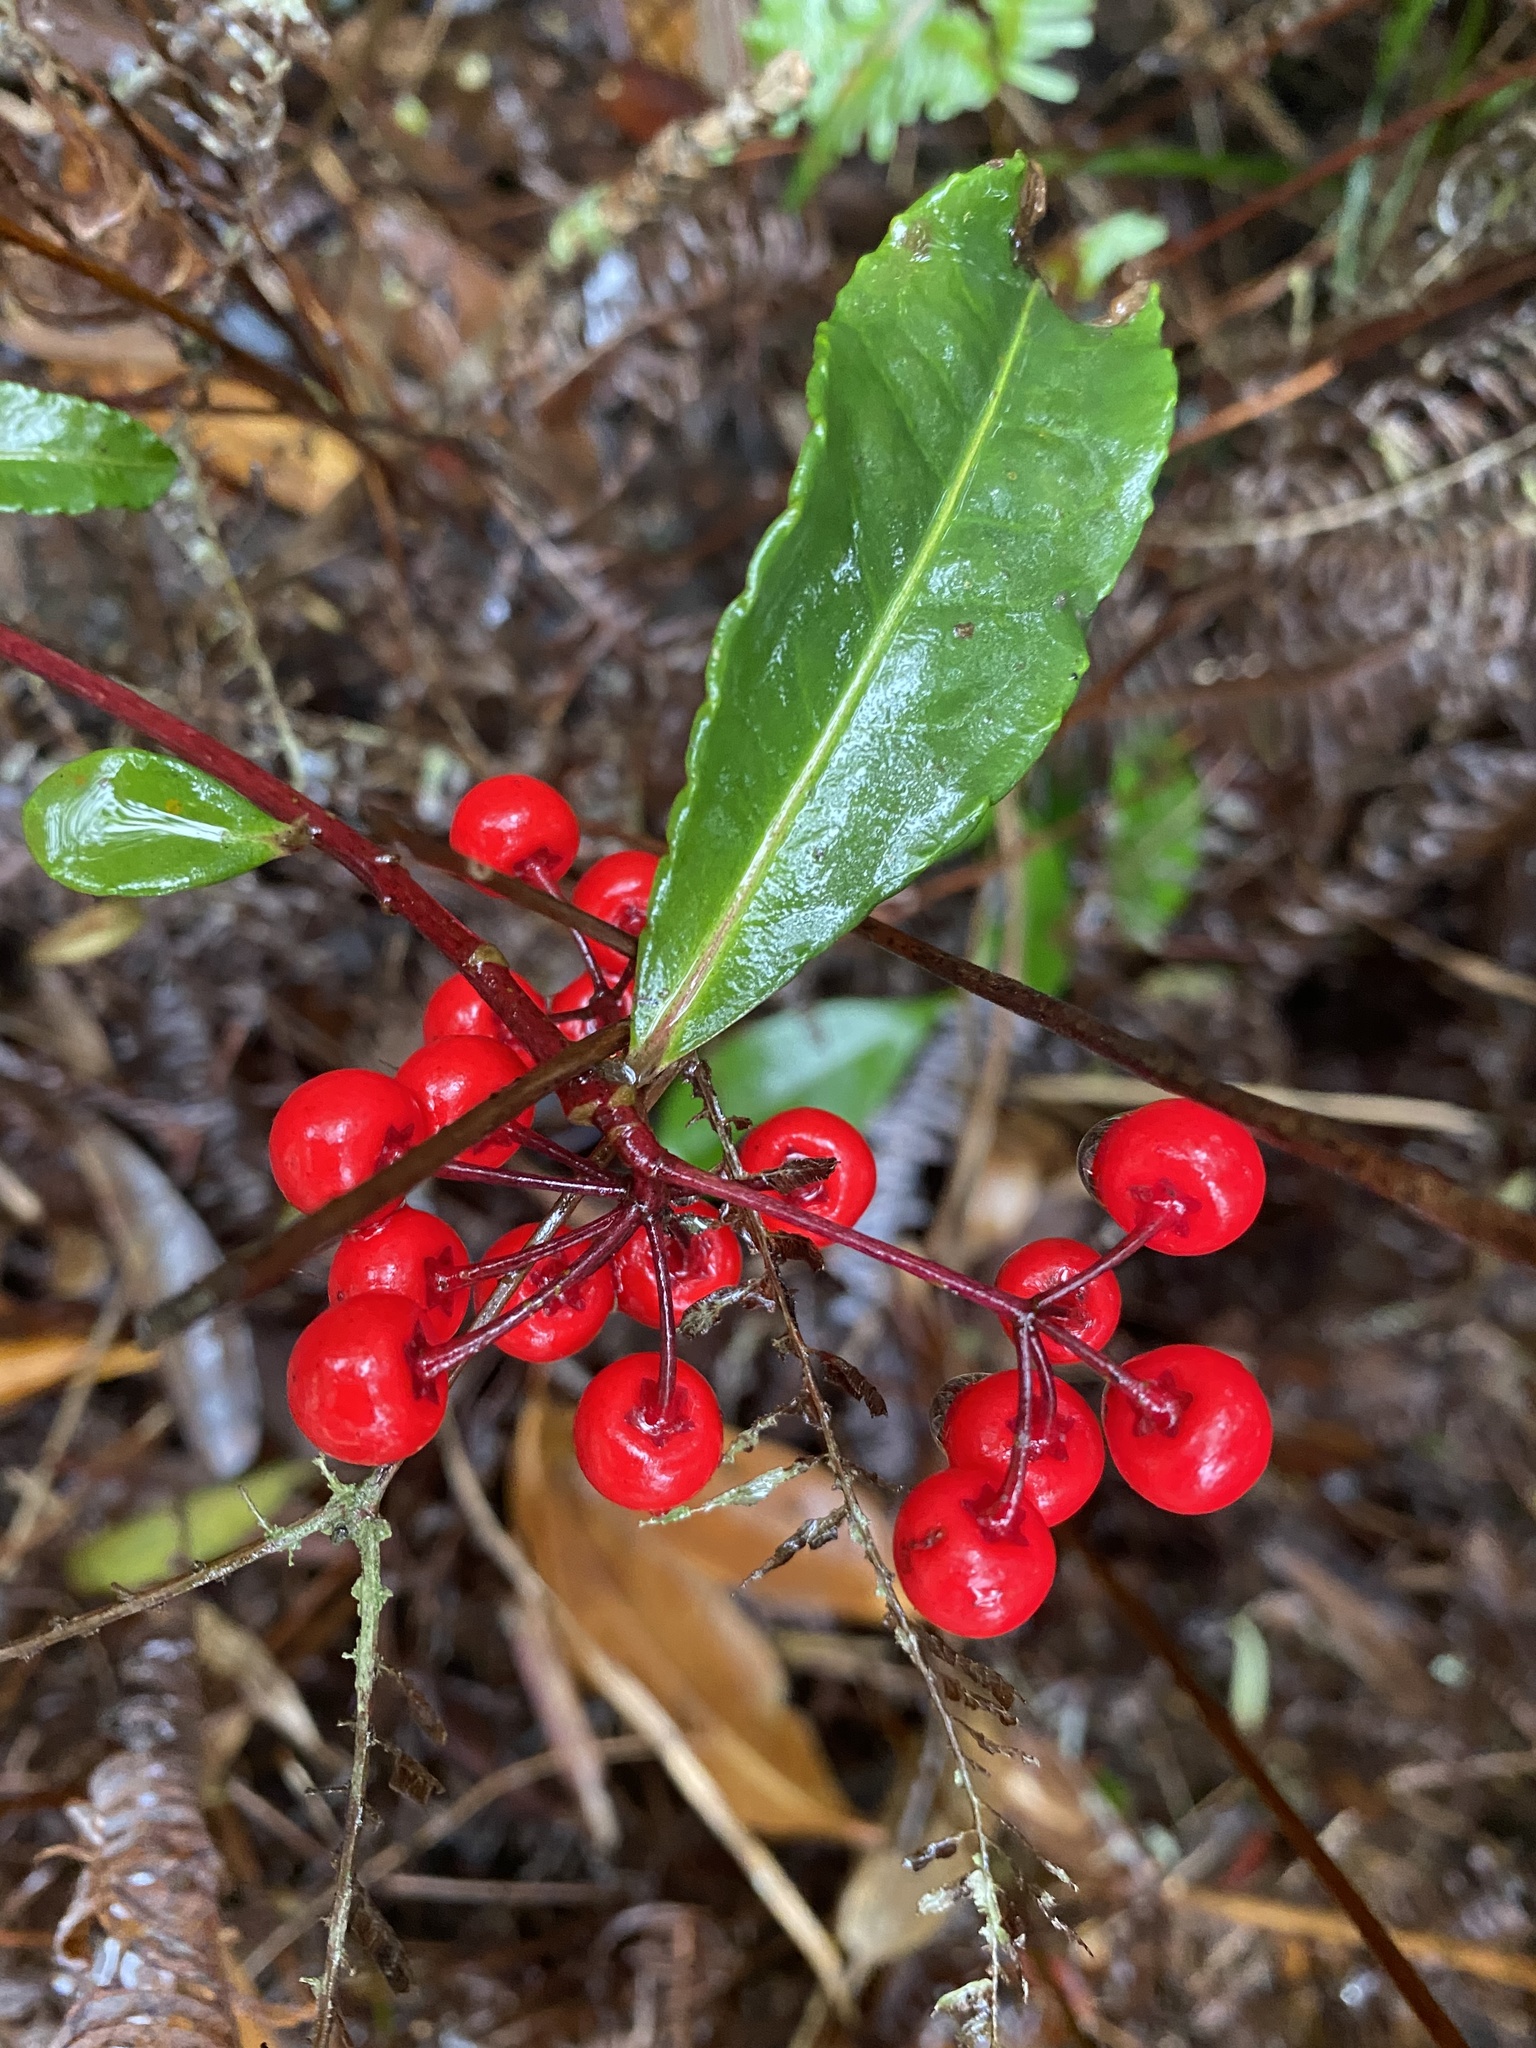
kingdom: Plantae
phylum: Tracheophyta
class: Magnoliopsida
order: Ericales
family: Primulaceae
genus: Ardisia
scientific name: Ardisia crenata
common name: Hen's eyes
